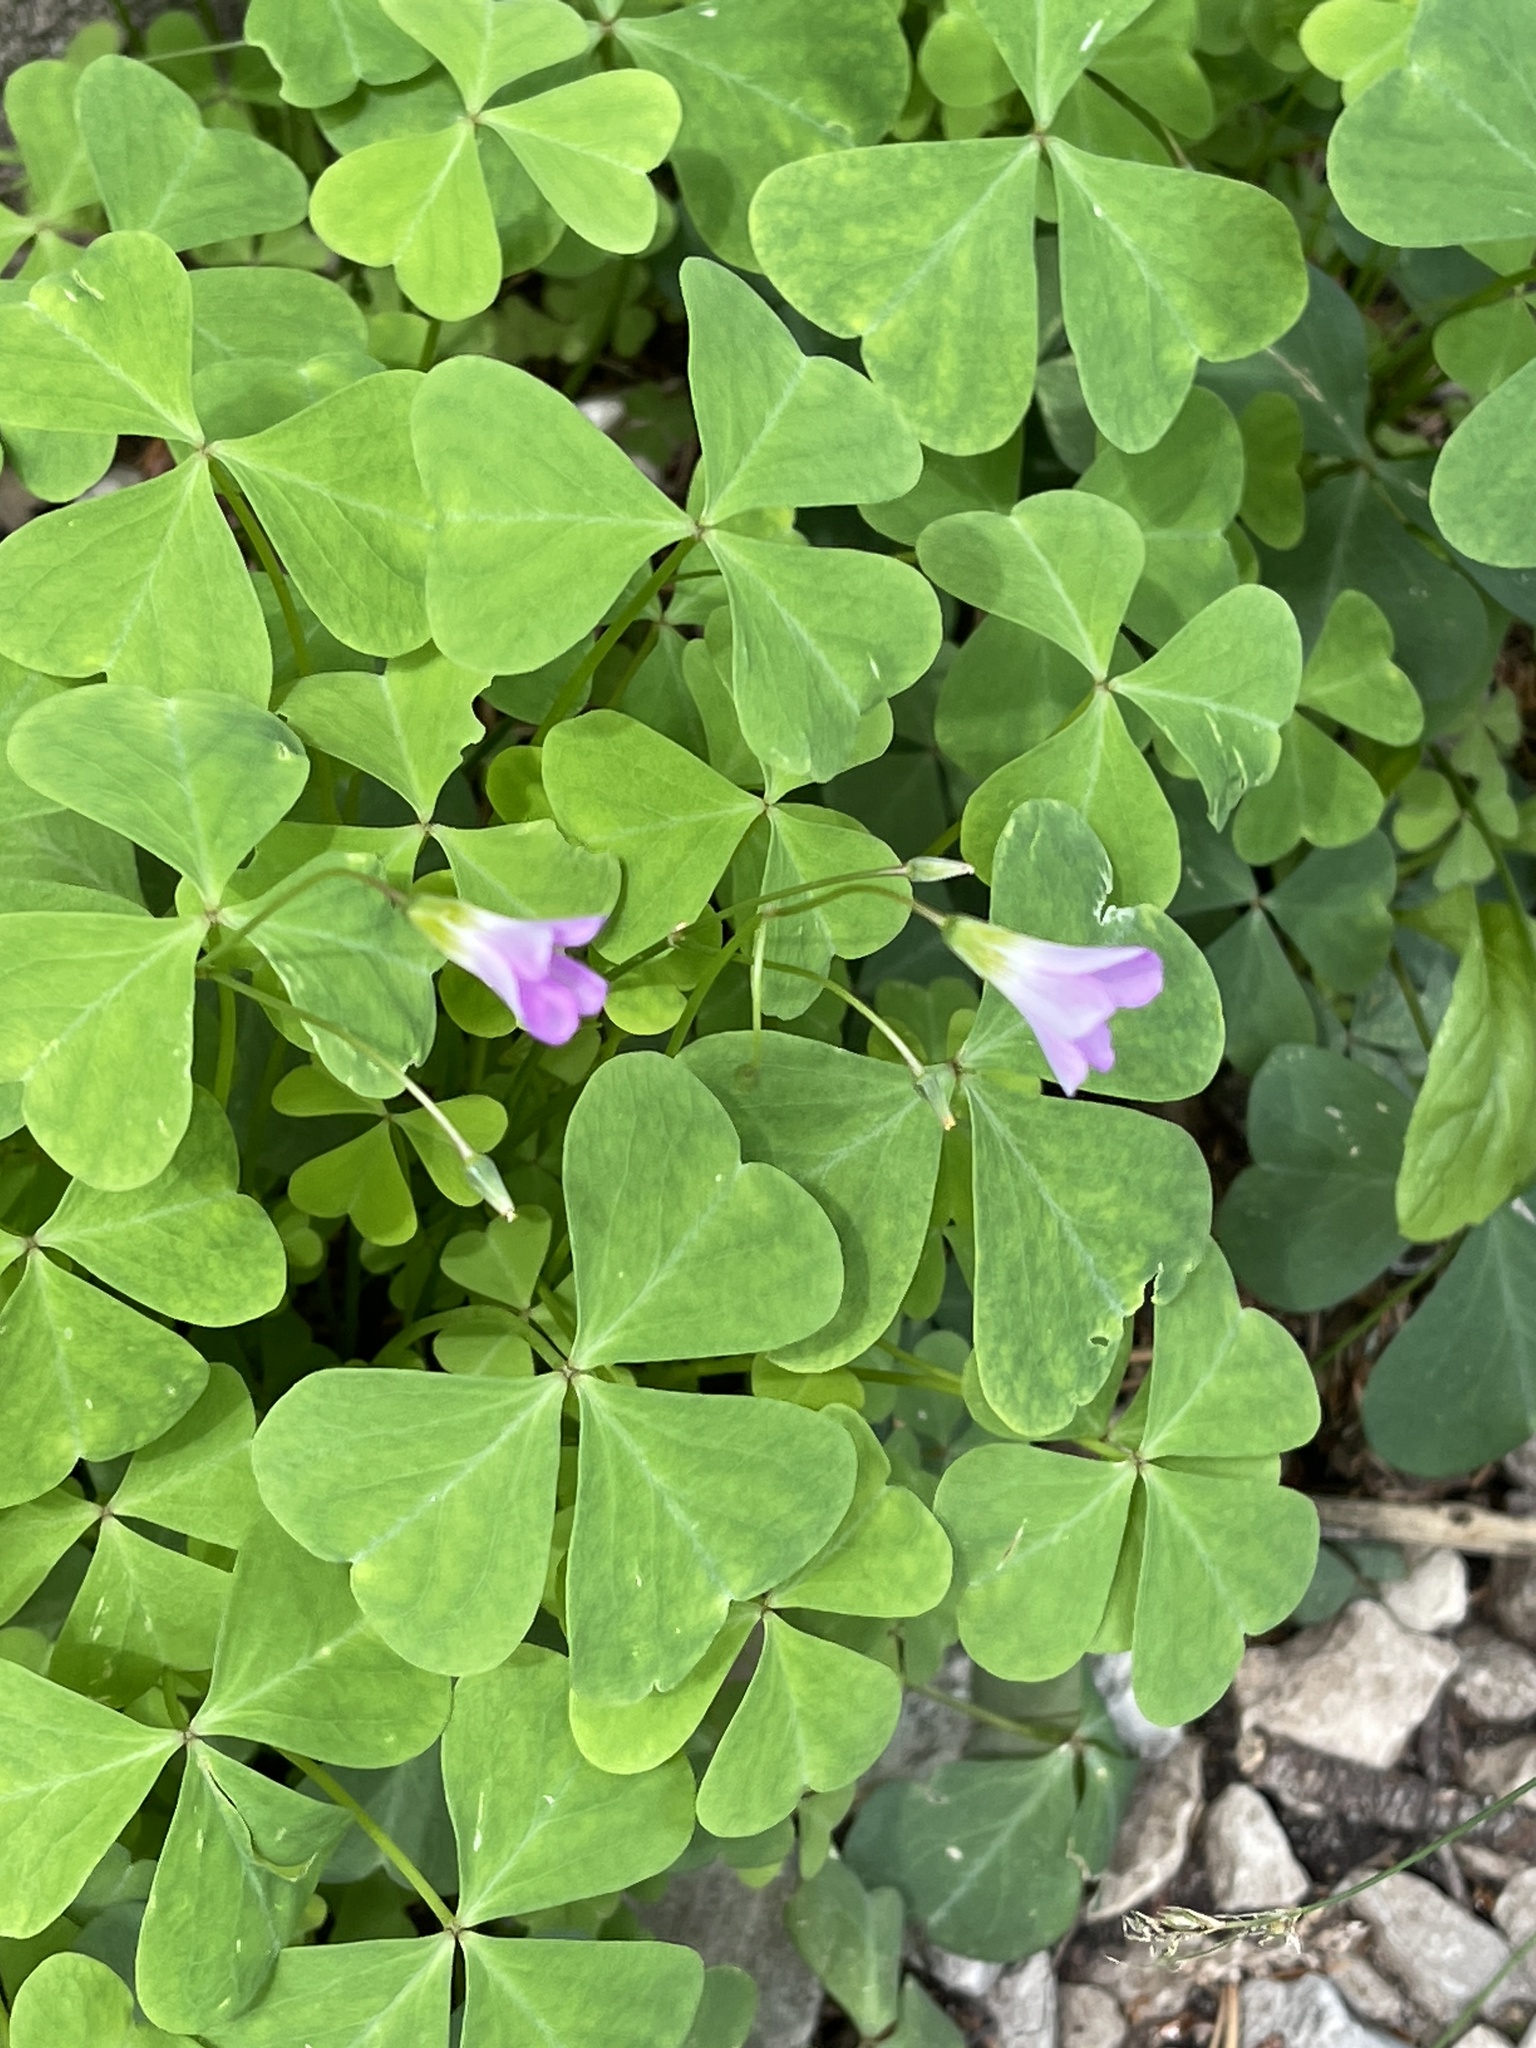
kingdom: Plantae
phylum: Tracheophyta
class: Magnoliopsida
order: Oxalidales
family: Oxalidaceae
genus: Oxalis
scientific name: Oxalis metcalfei
